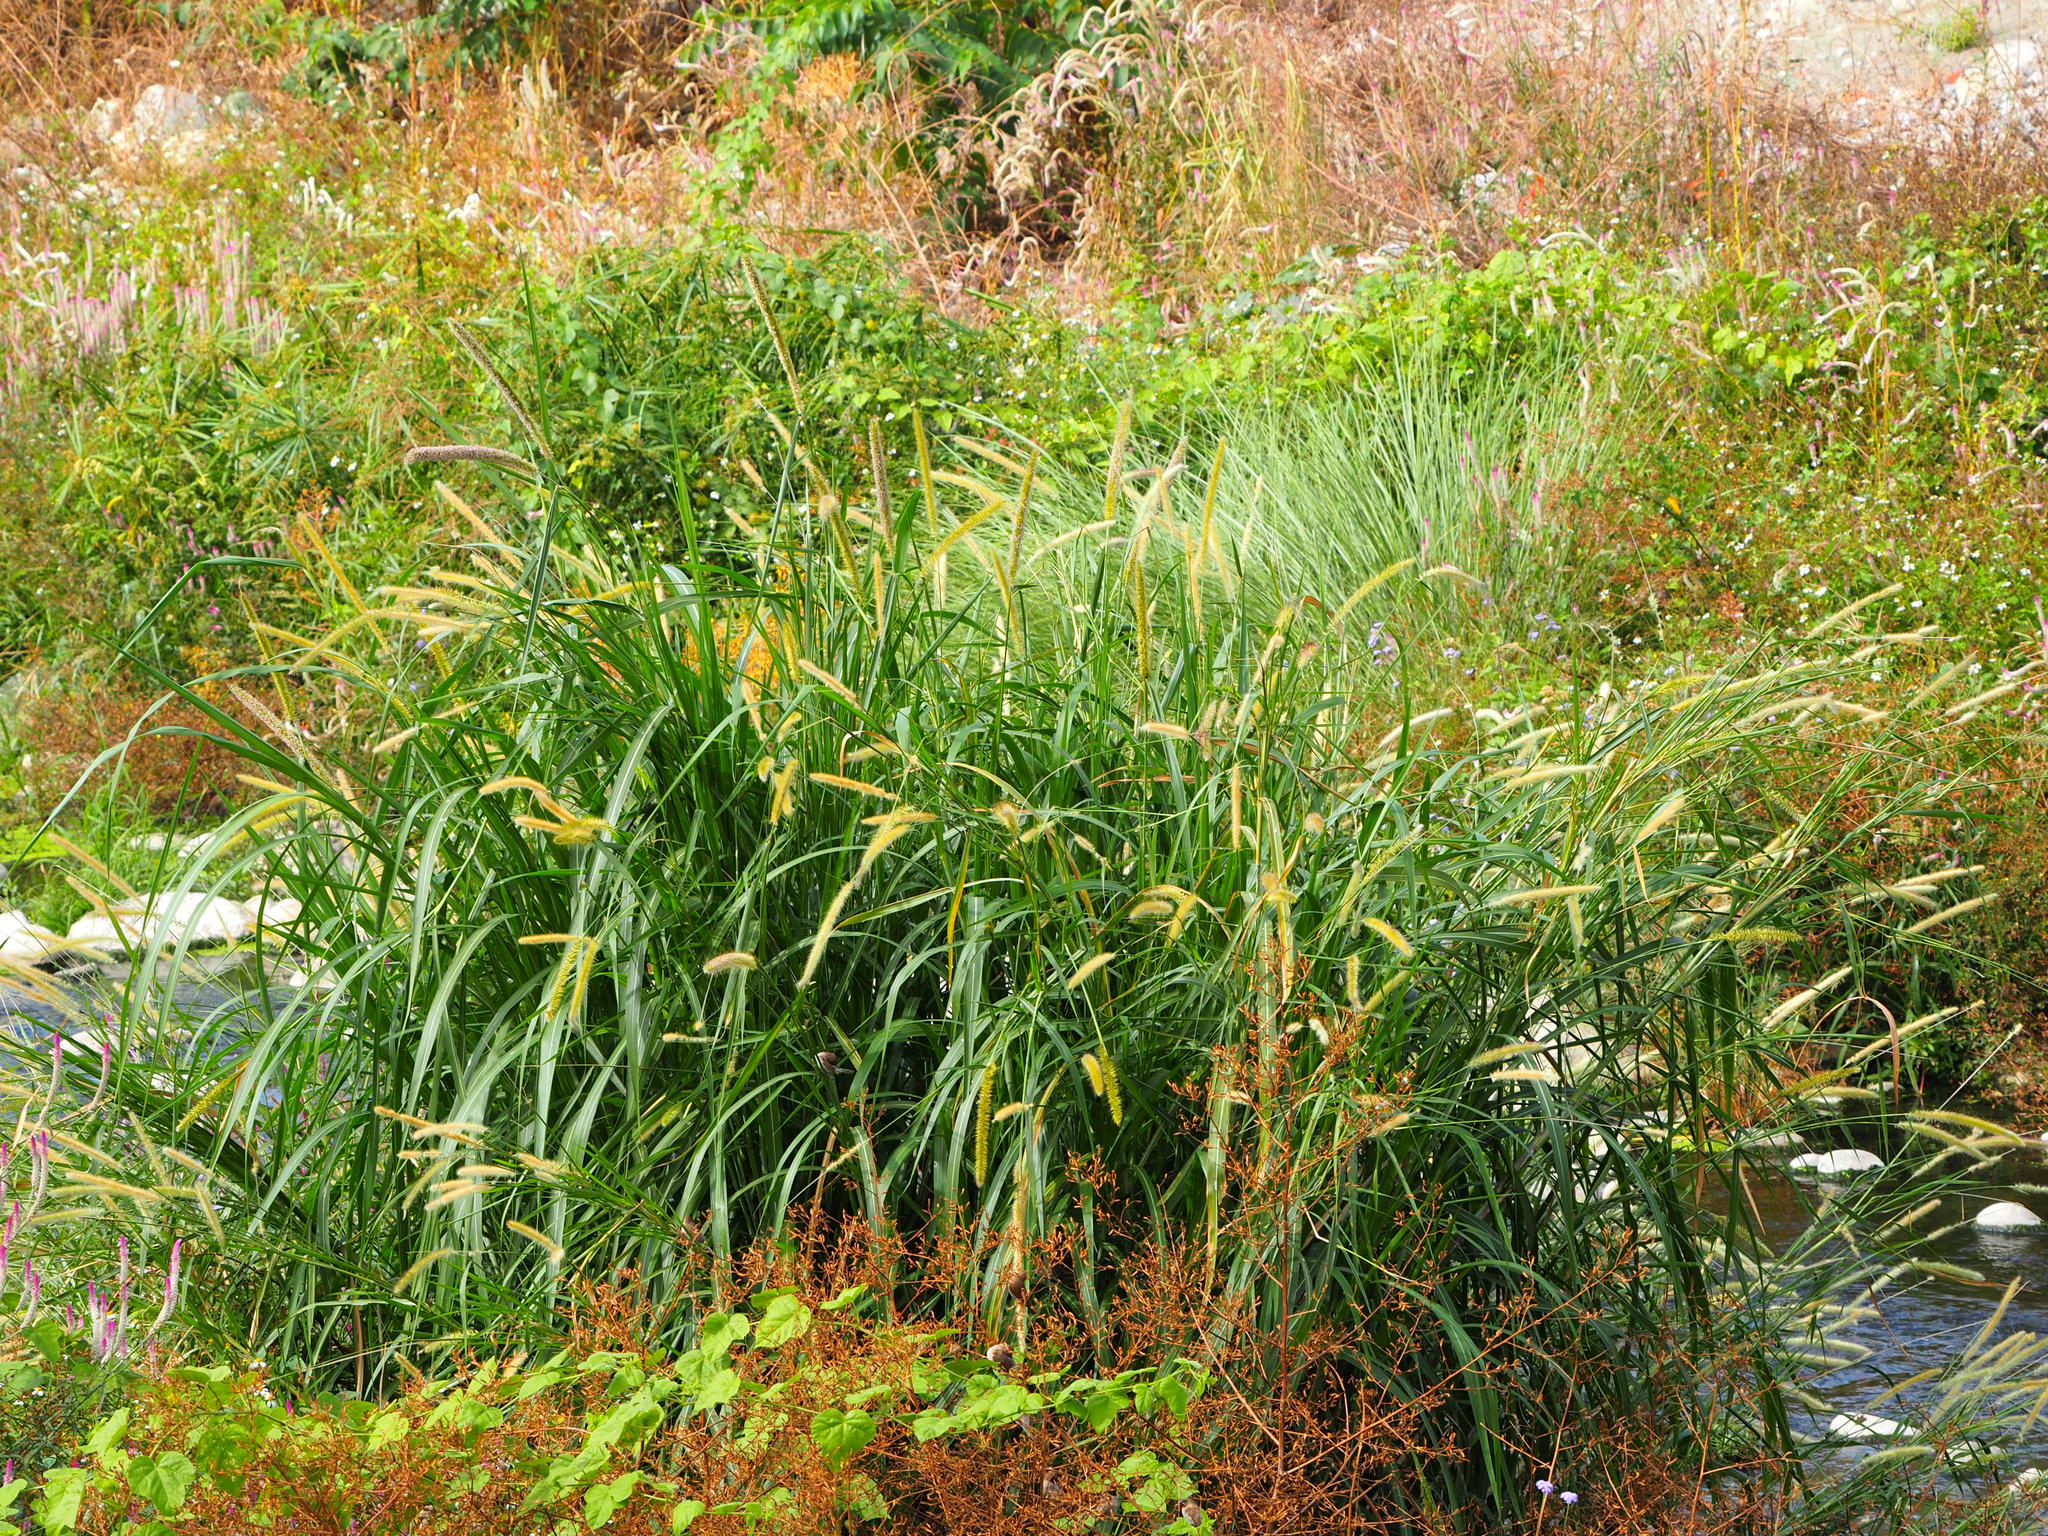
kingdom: Plantae
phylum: Tracheophyta
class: Liliopsida
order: Poales
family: Poaceae
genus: Cenchrus
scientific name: Cenchrus purpureus
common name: Elephant grass
